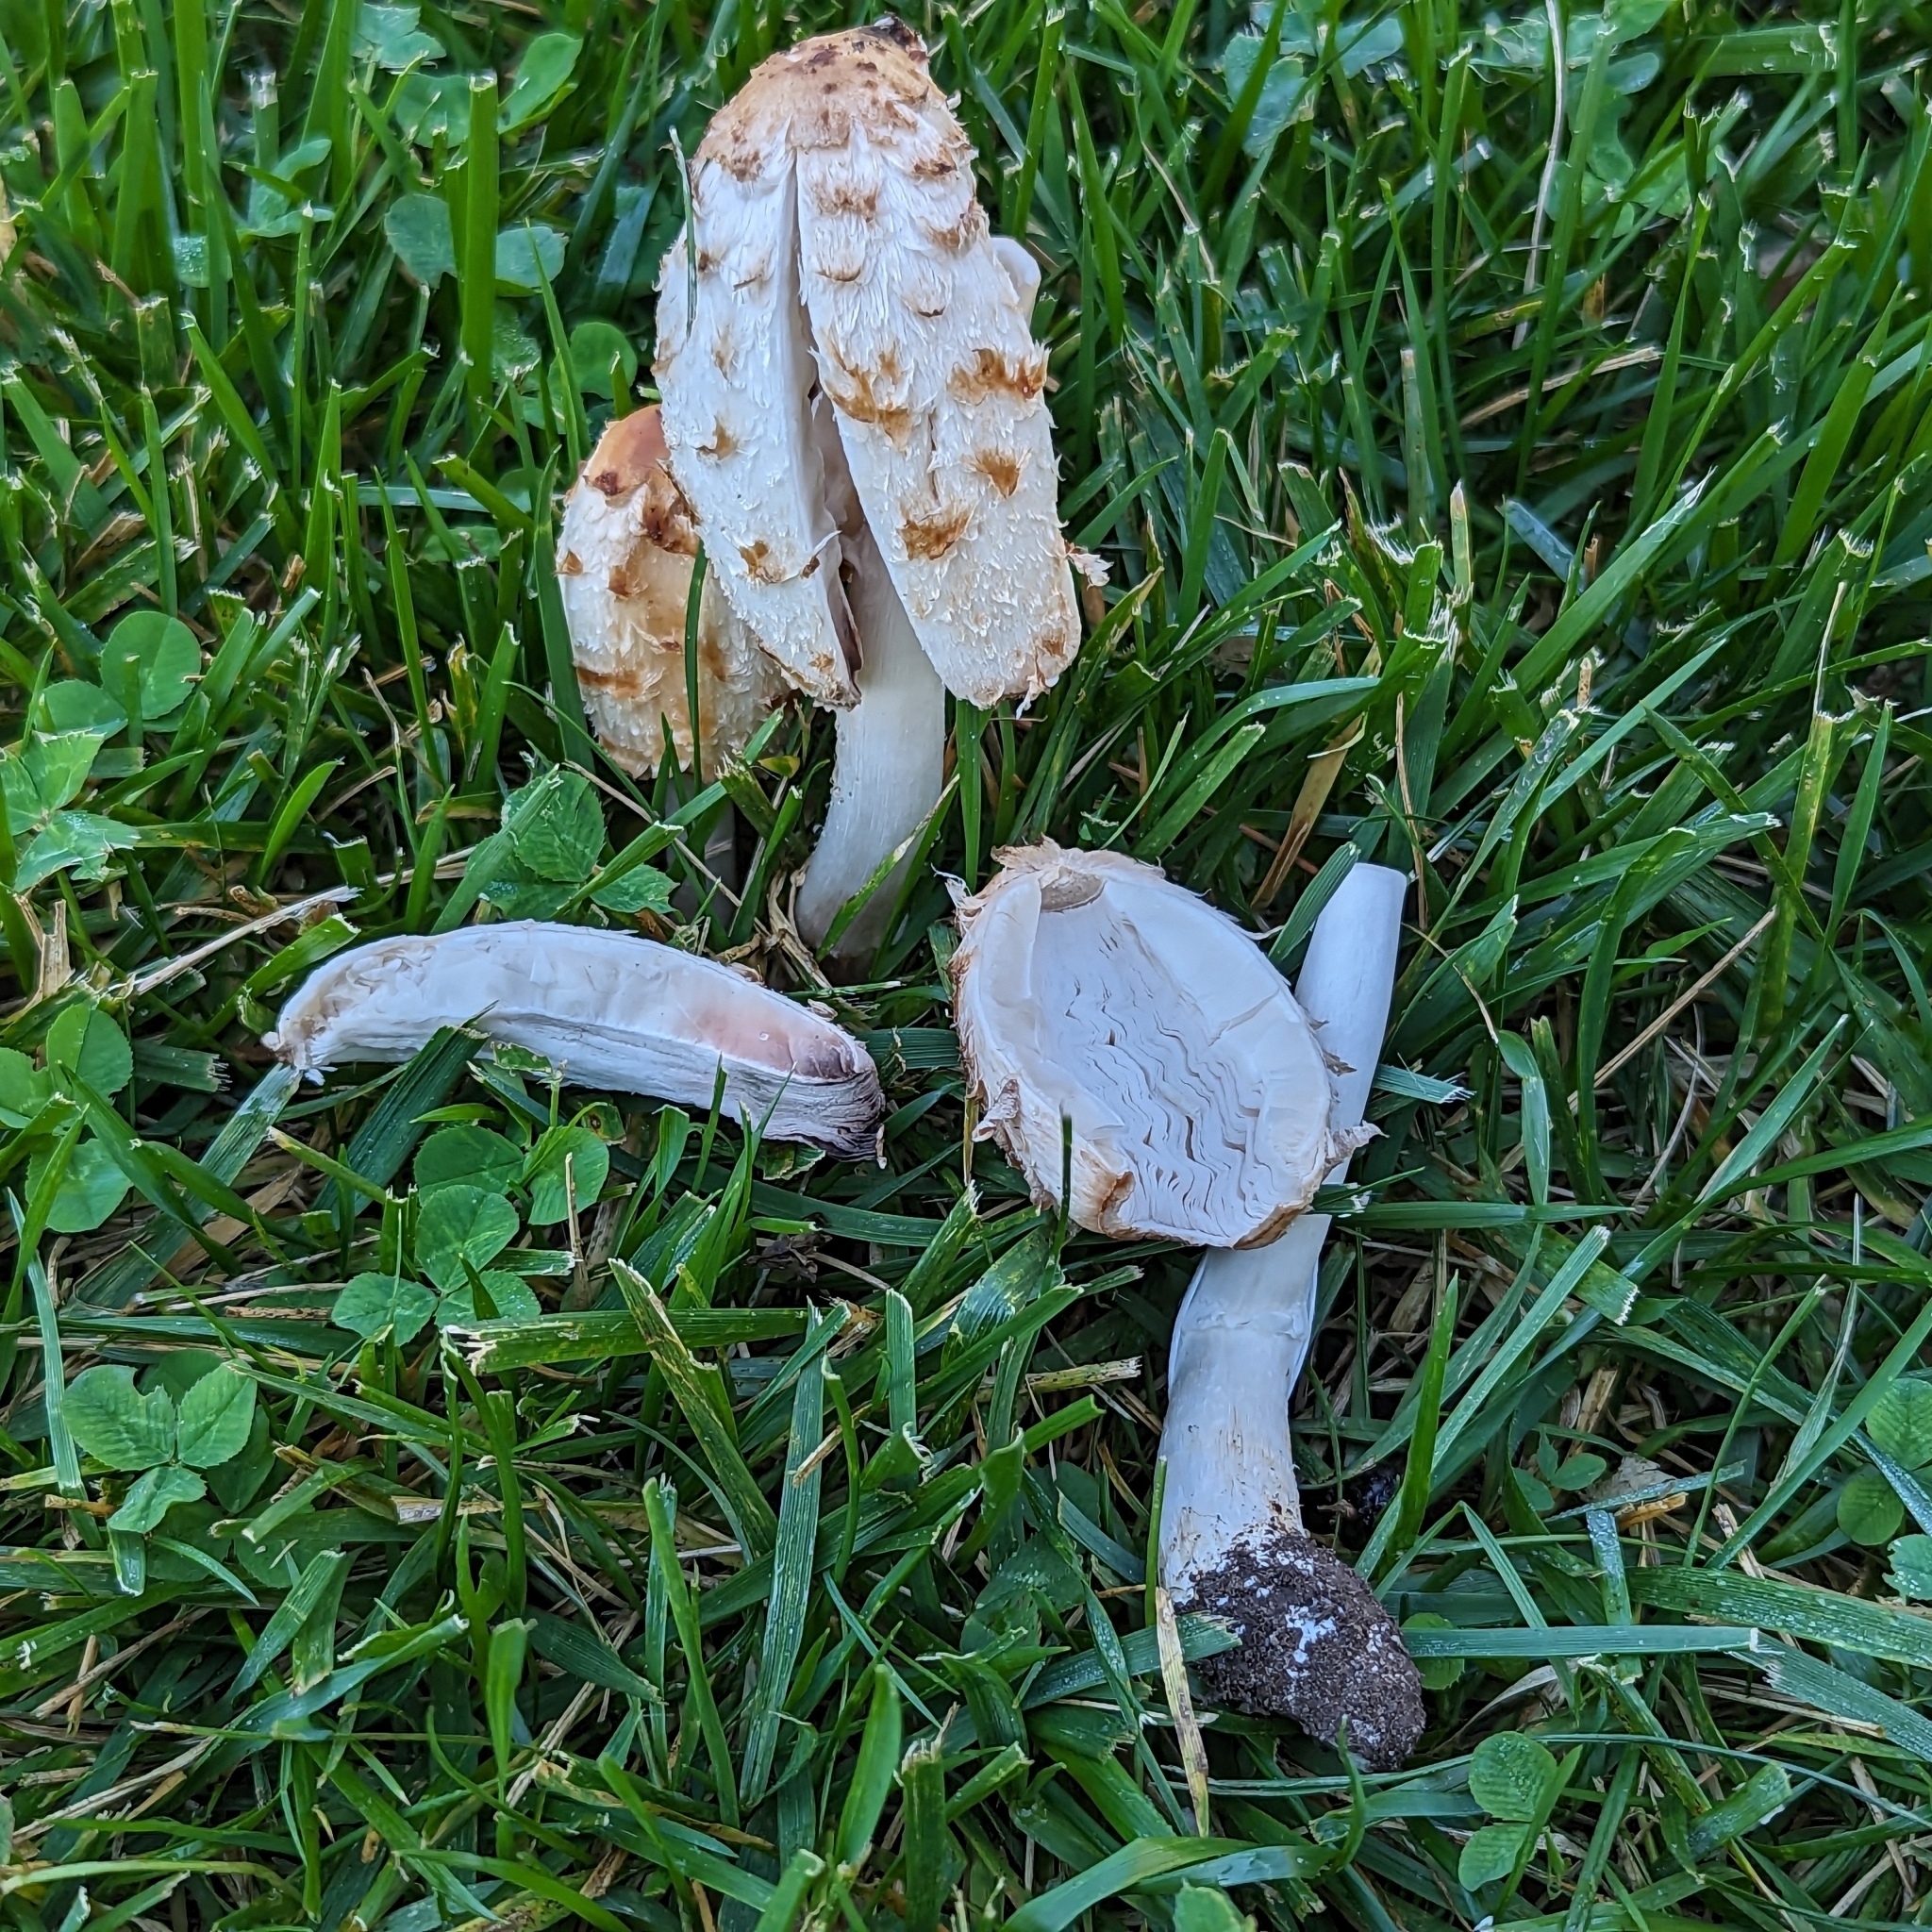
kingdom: Fungi
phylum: Basidiomycota
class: Agaricomycetes
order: Agaricales
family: Agaricaceae
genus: Coprinus
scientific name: Coprinus comatus
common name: Lawyer's wig
